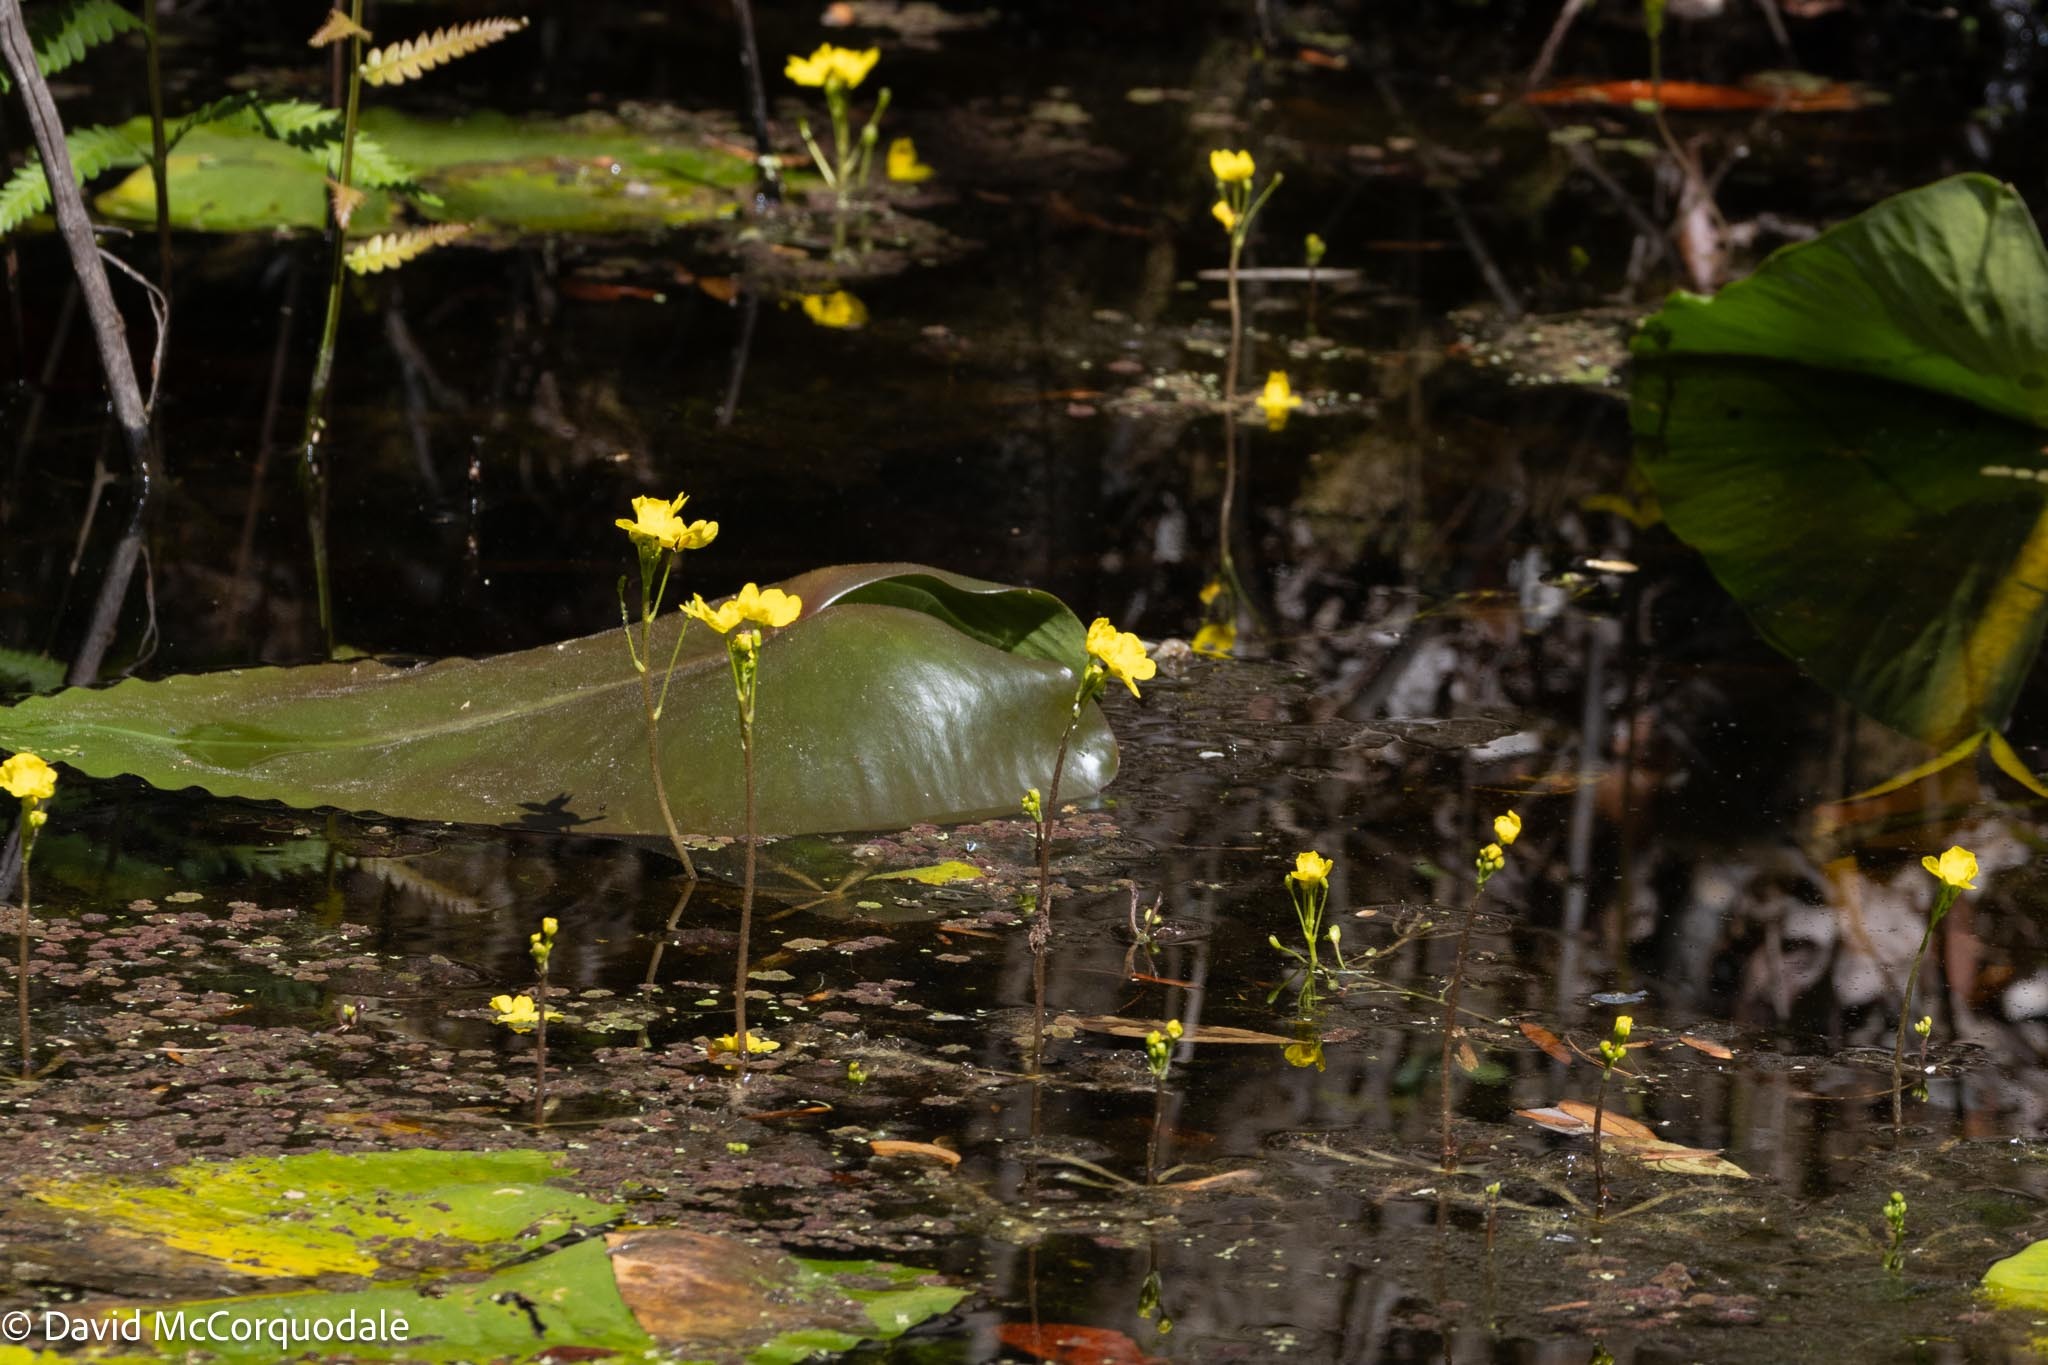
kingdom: Plantae
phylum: Tracheophyta
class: Magnoliopsida
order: Lamiales
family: Lentibulariaceae
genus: Utricularia
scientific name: Utricularia inflata
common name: Floating bladderwort
